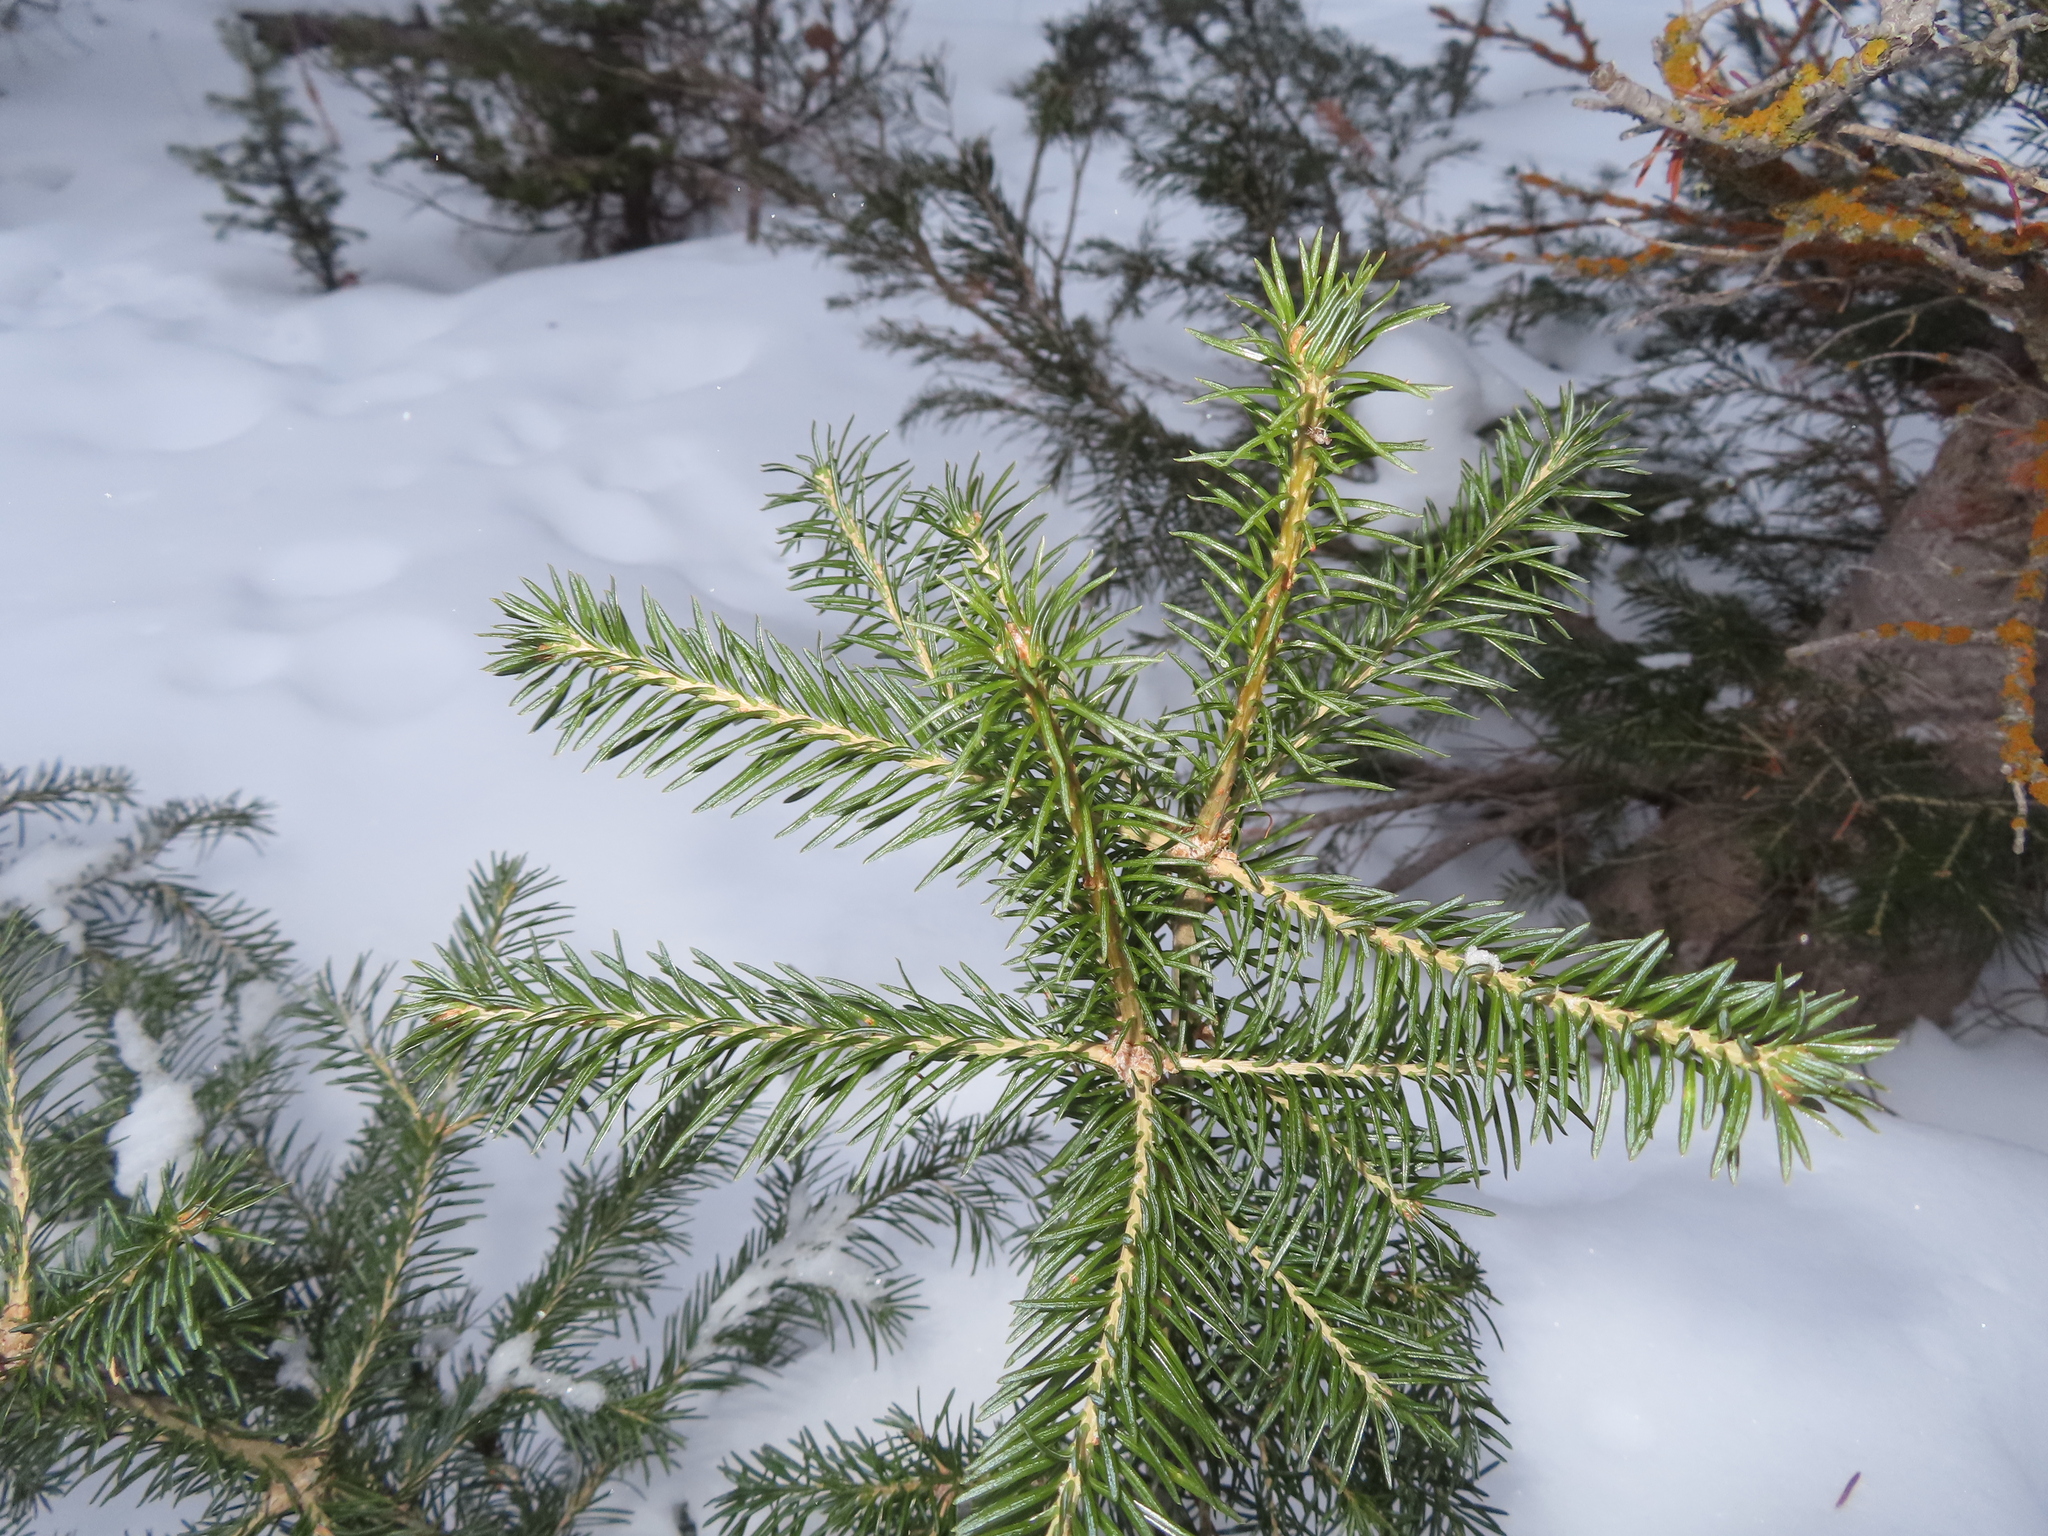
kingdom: Plantae
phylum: Tracheophyta
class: Pinopsida
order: Pinales
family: Pinaceae
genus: Abies
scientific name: Abies lasiocarpa
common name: Subalpine fir
